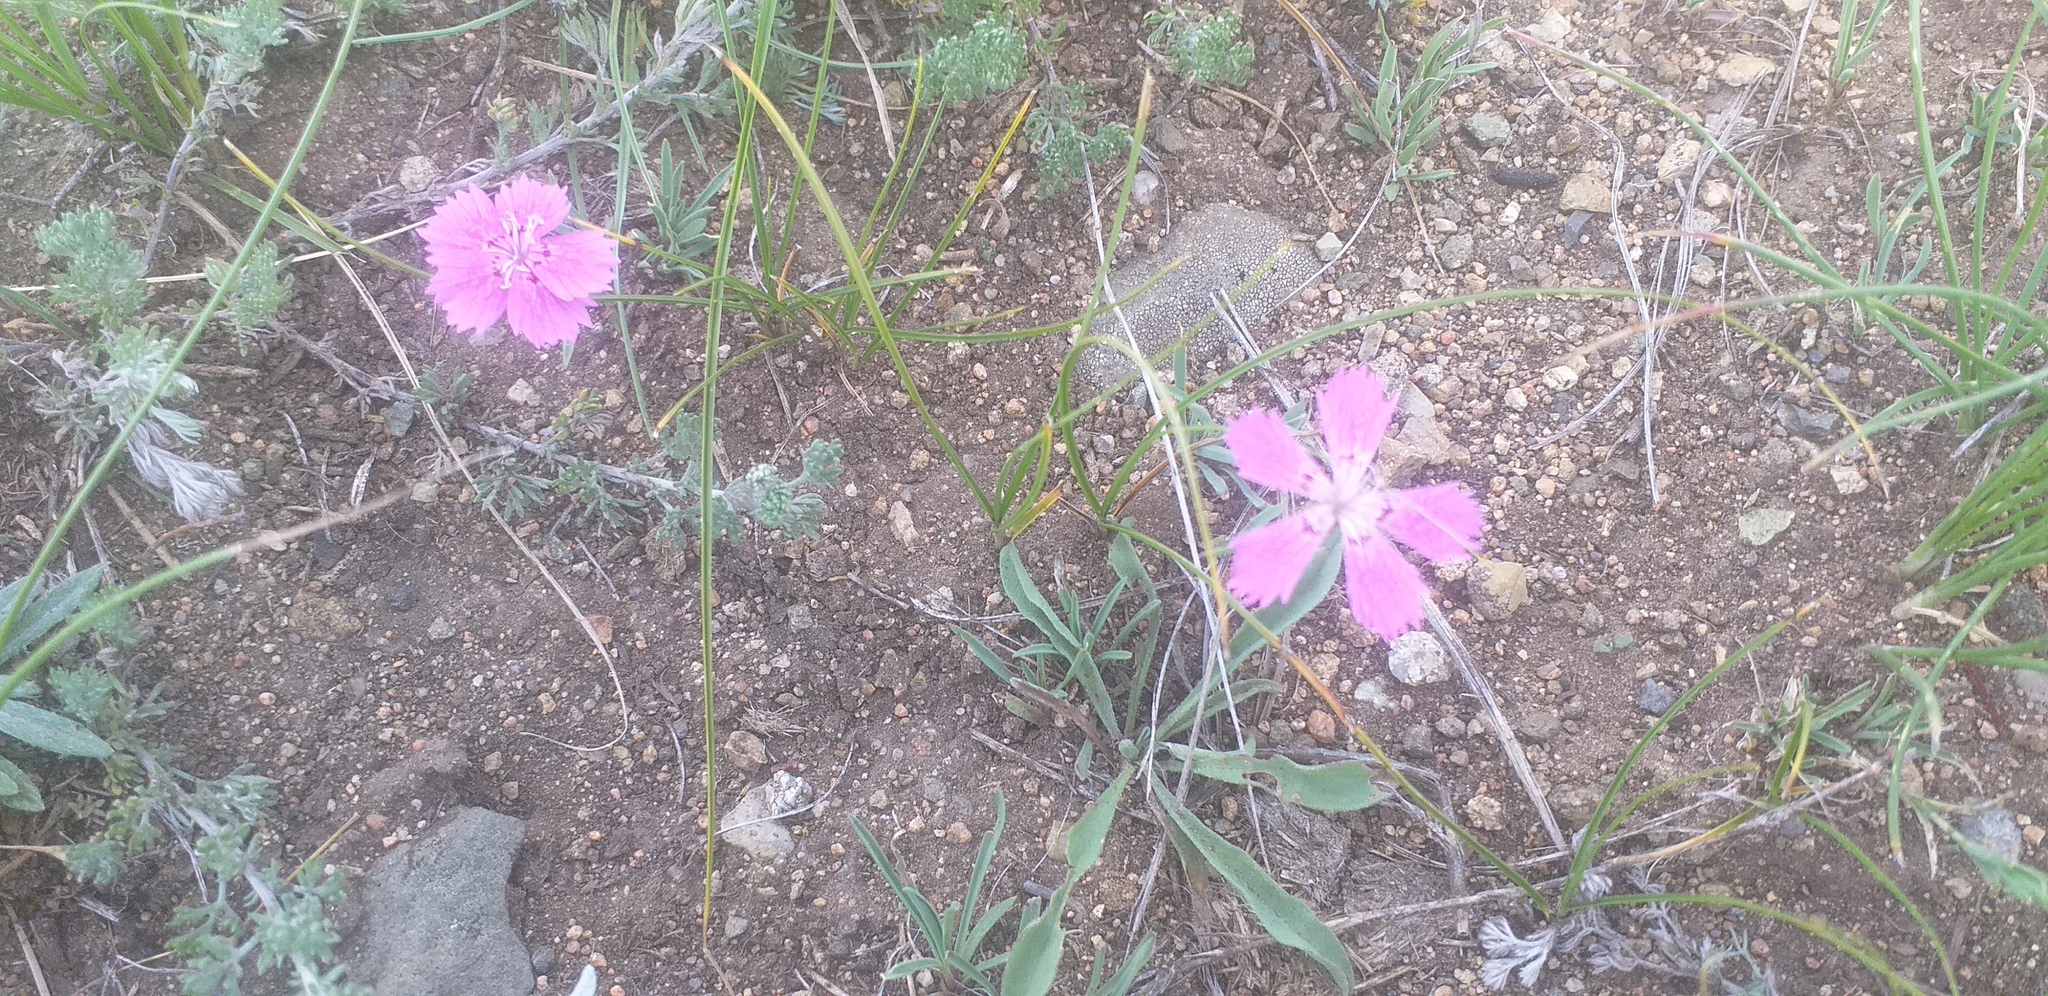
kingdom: Plantae
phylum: Tracheophyta
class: Magnoliopsida
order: Caryophyllales
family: Caryophyllaceae
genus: Dianthus
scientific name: Dianthus chinensis
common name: Rainbow pink
